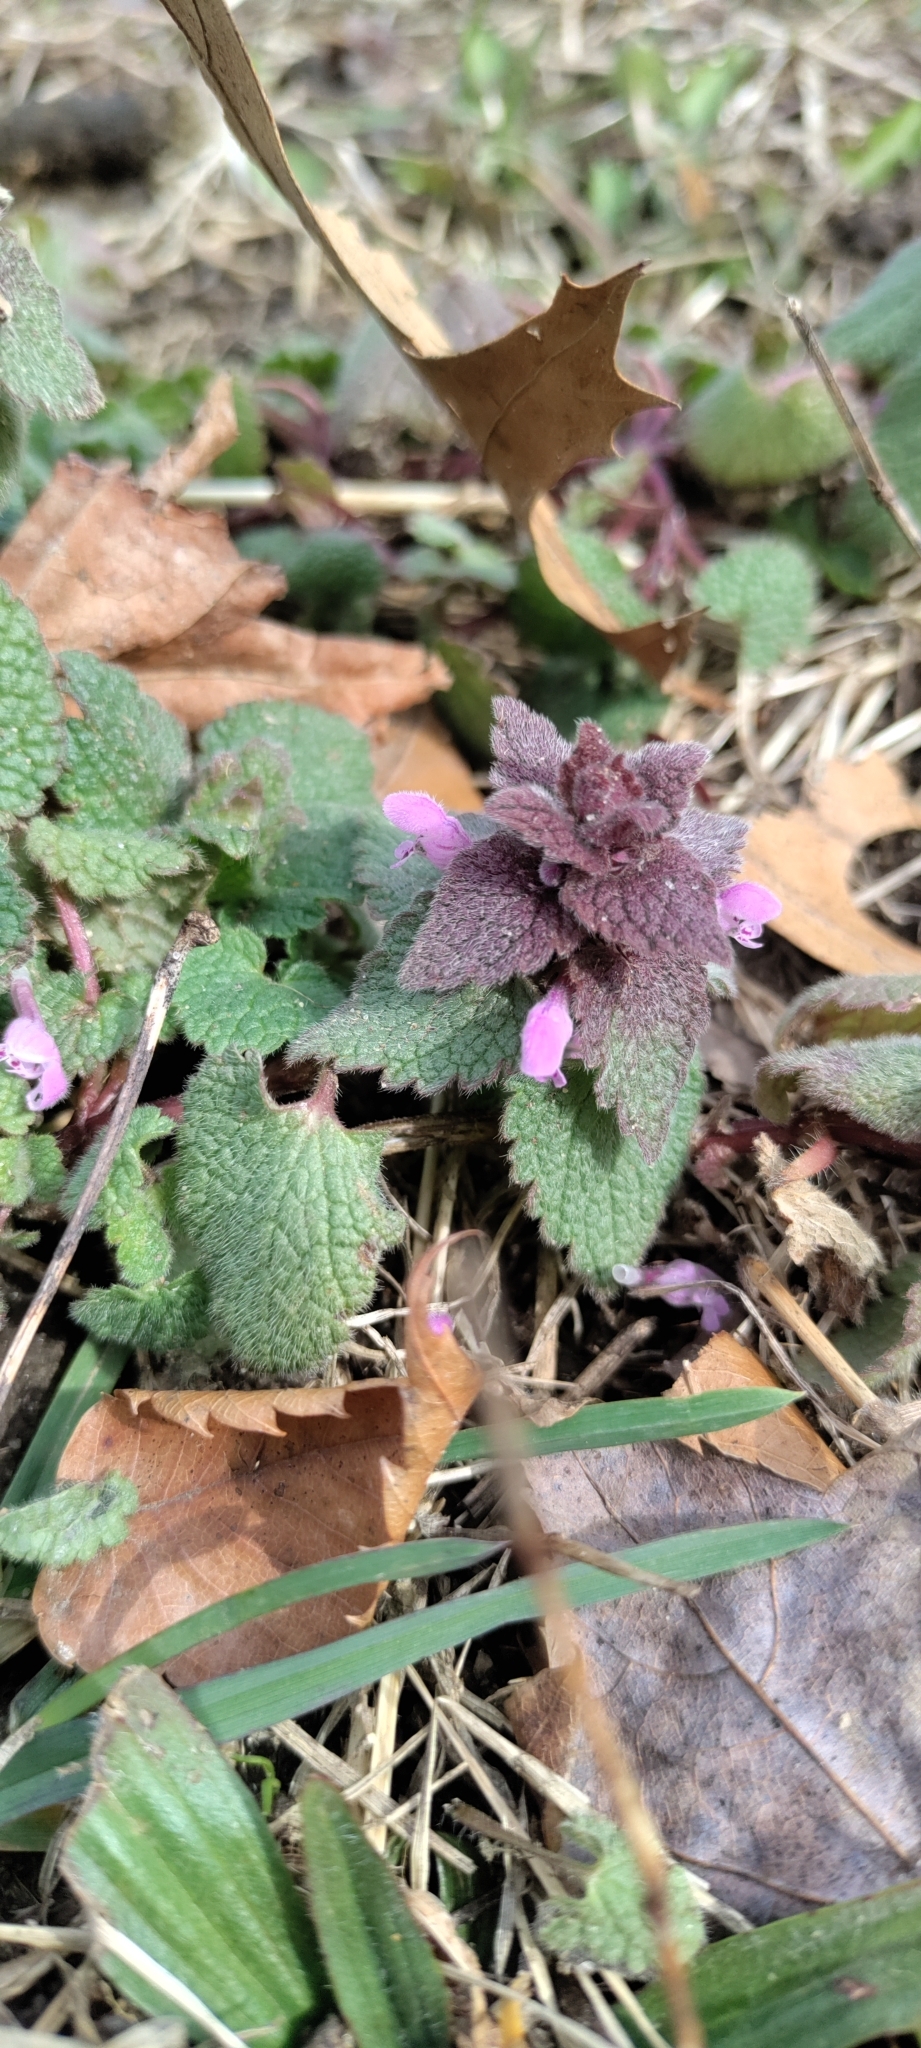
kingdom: Plantae
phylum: Tracheophyta
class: Magnoliopsida
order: Lamiales
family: Lamiaceae
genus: Lamium
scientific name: Lamium purpureum
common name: Red dead-nettle
